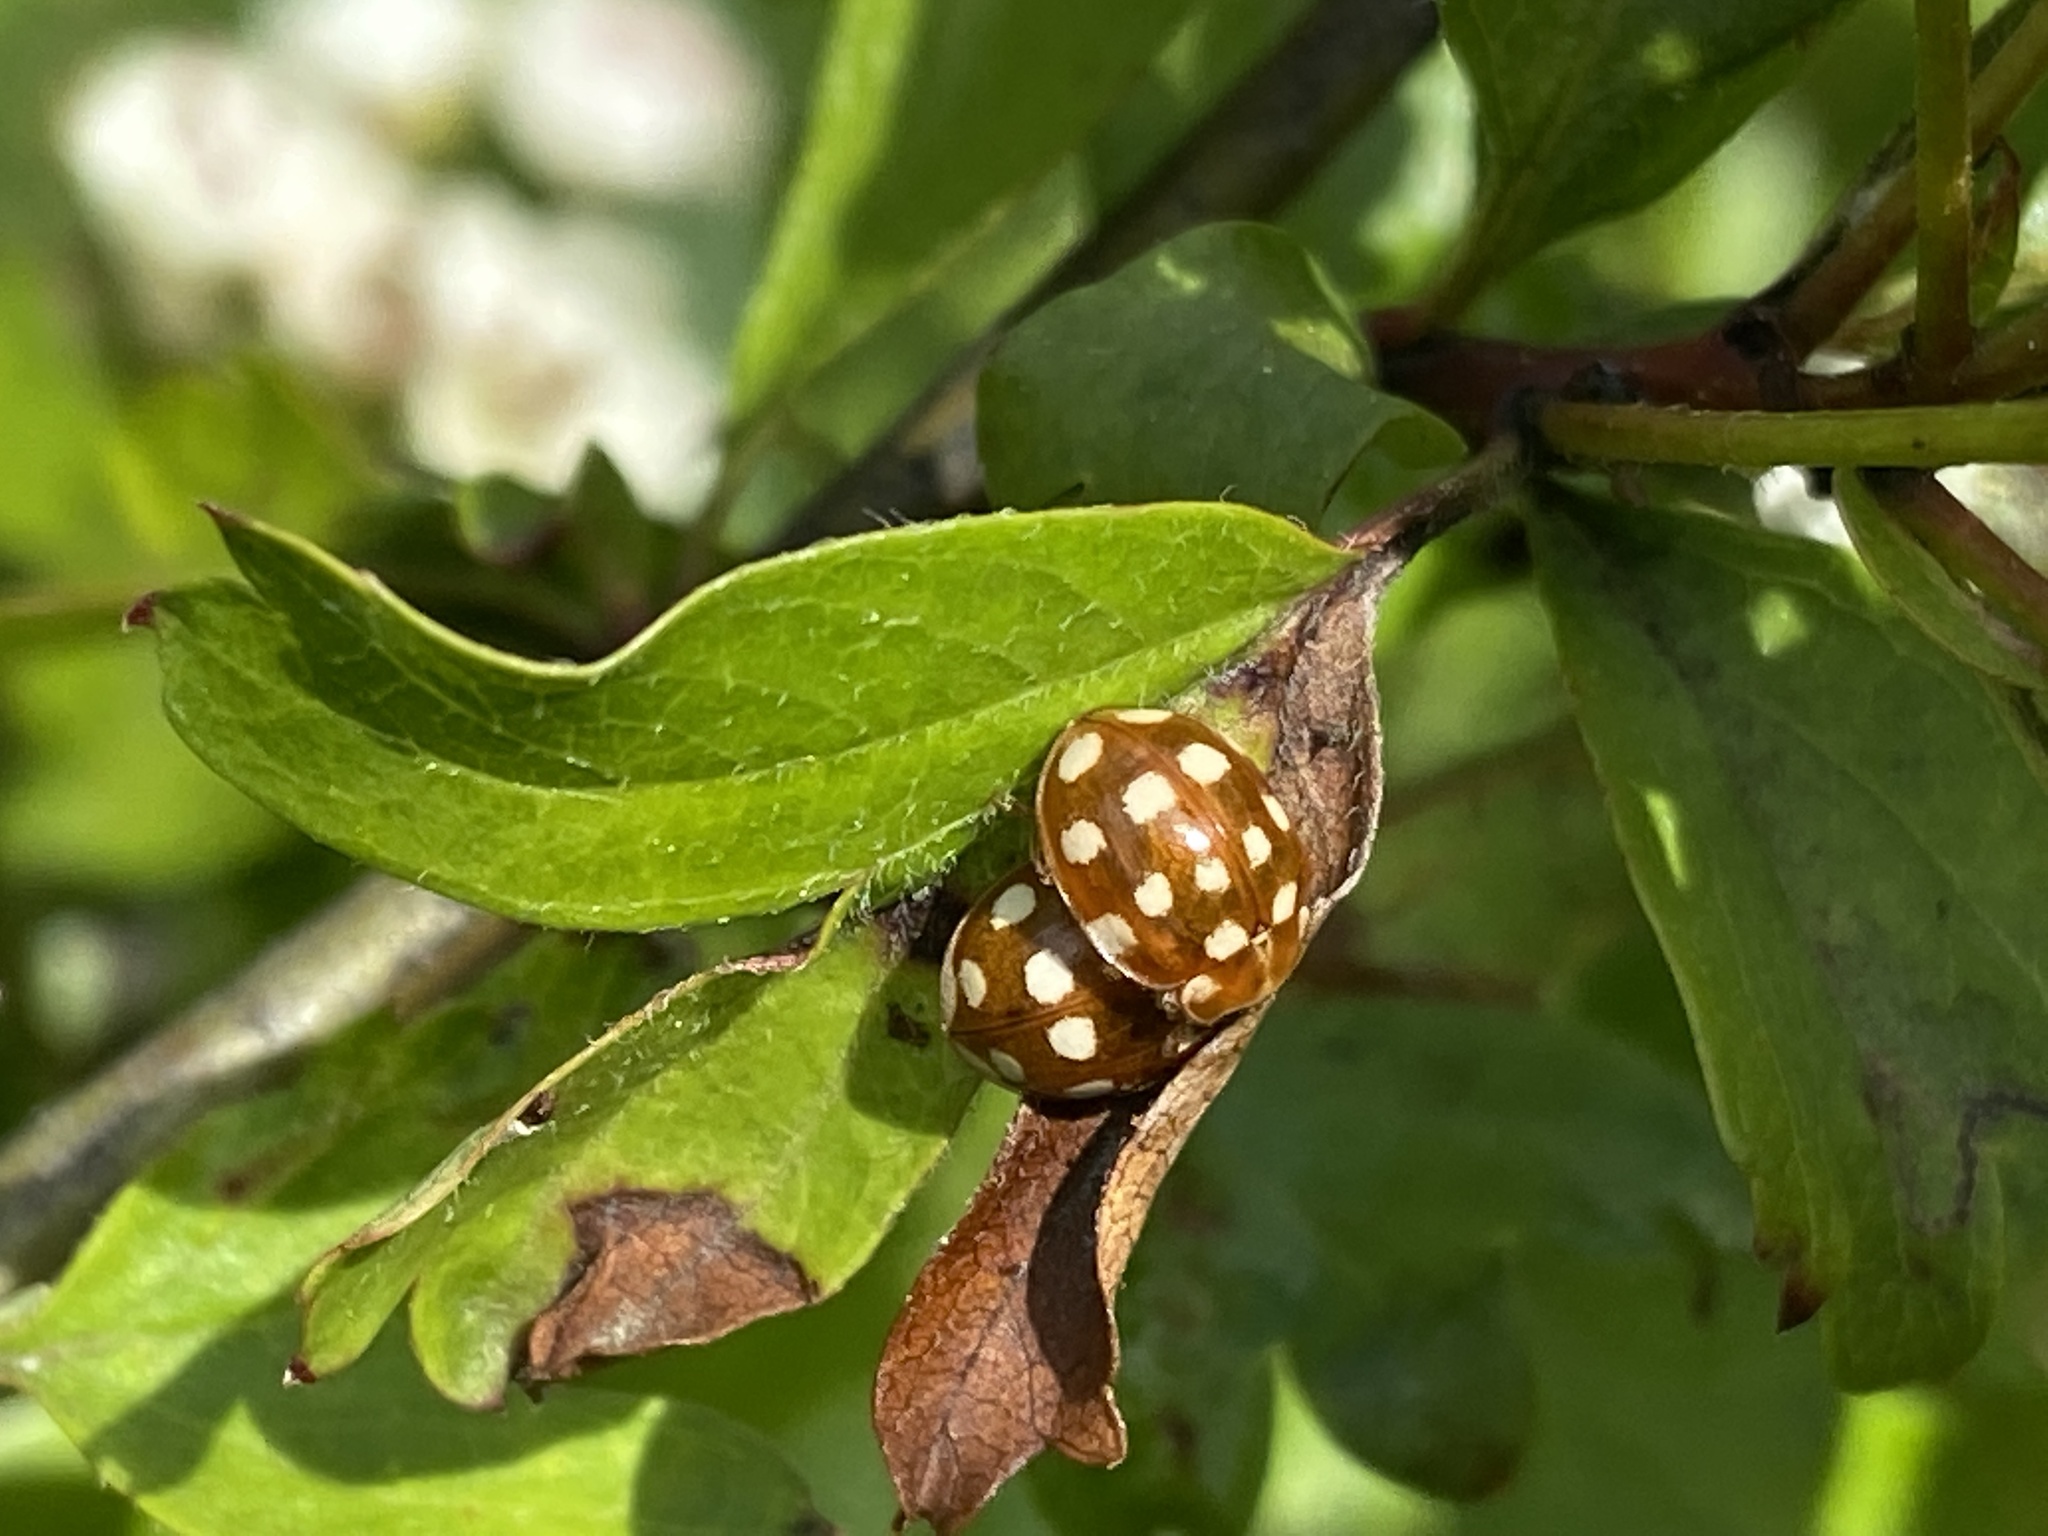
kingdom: Animalia
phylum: Arthropoda
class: Insecta
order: Coleoptera
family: Coccinellidae
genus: Calvia
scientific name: Calvia quatuordecimguttata
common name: Cream-spot ladybird
